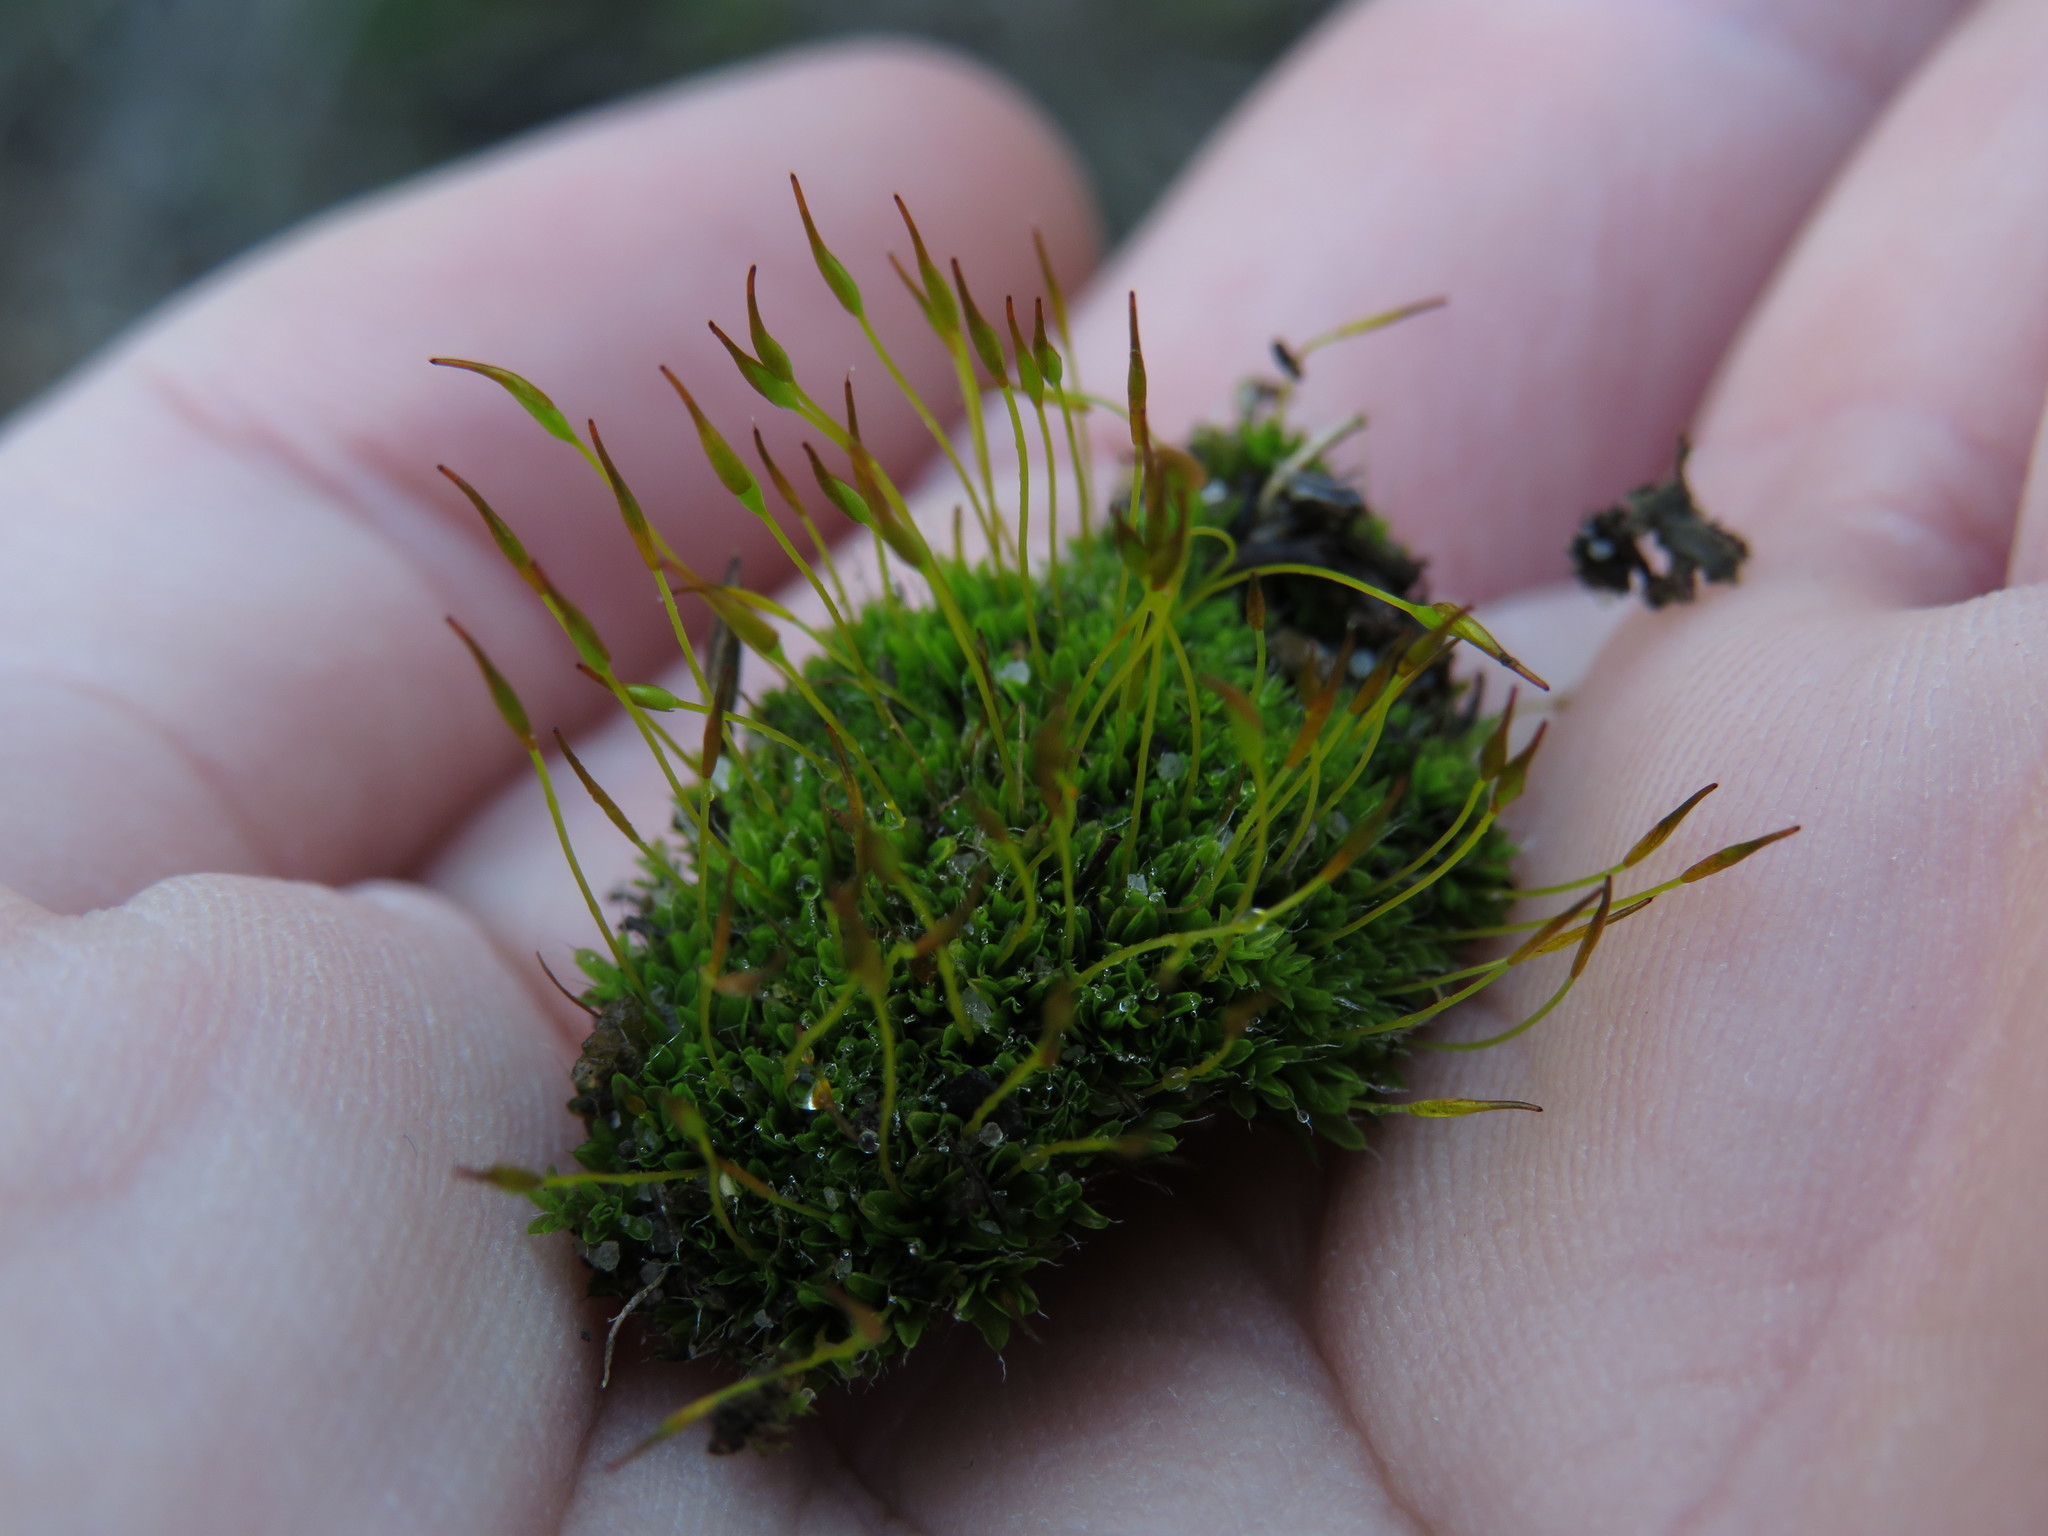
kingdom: Plantae
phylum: Bryophyta
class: Bryopsida
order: Pottiales
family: Pottiaceae
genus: Tortula
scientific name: Tortula muralis
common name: Wall screw-moss
